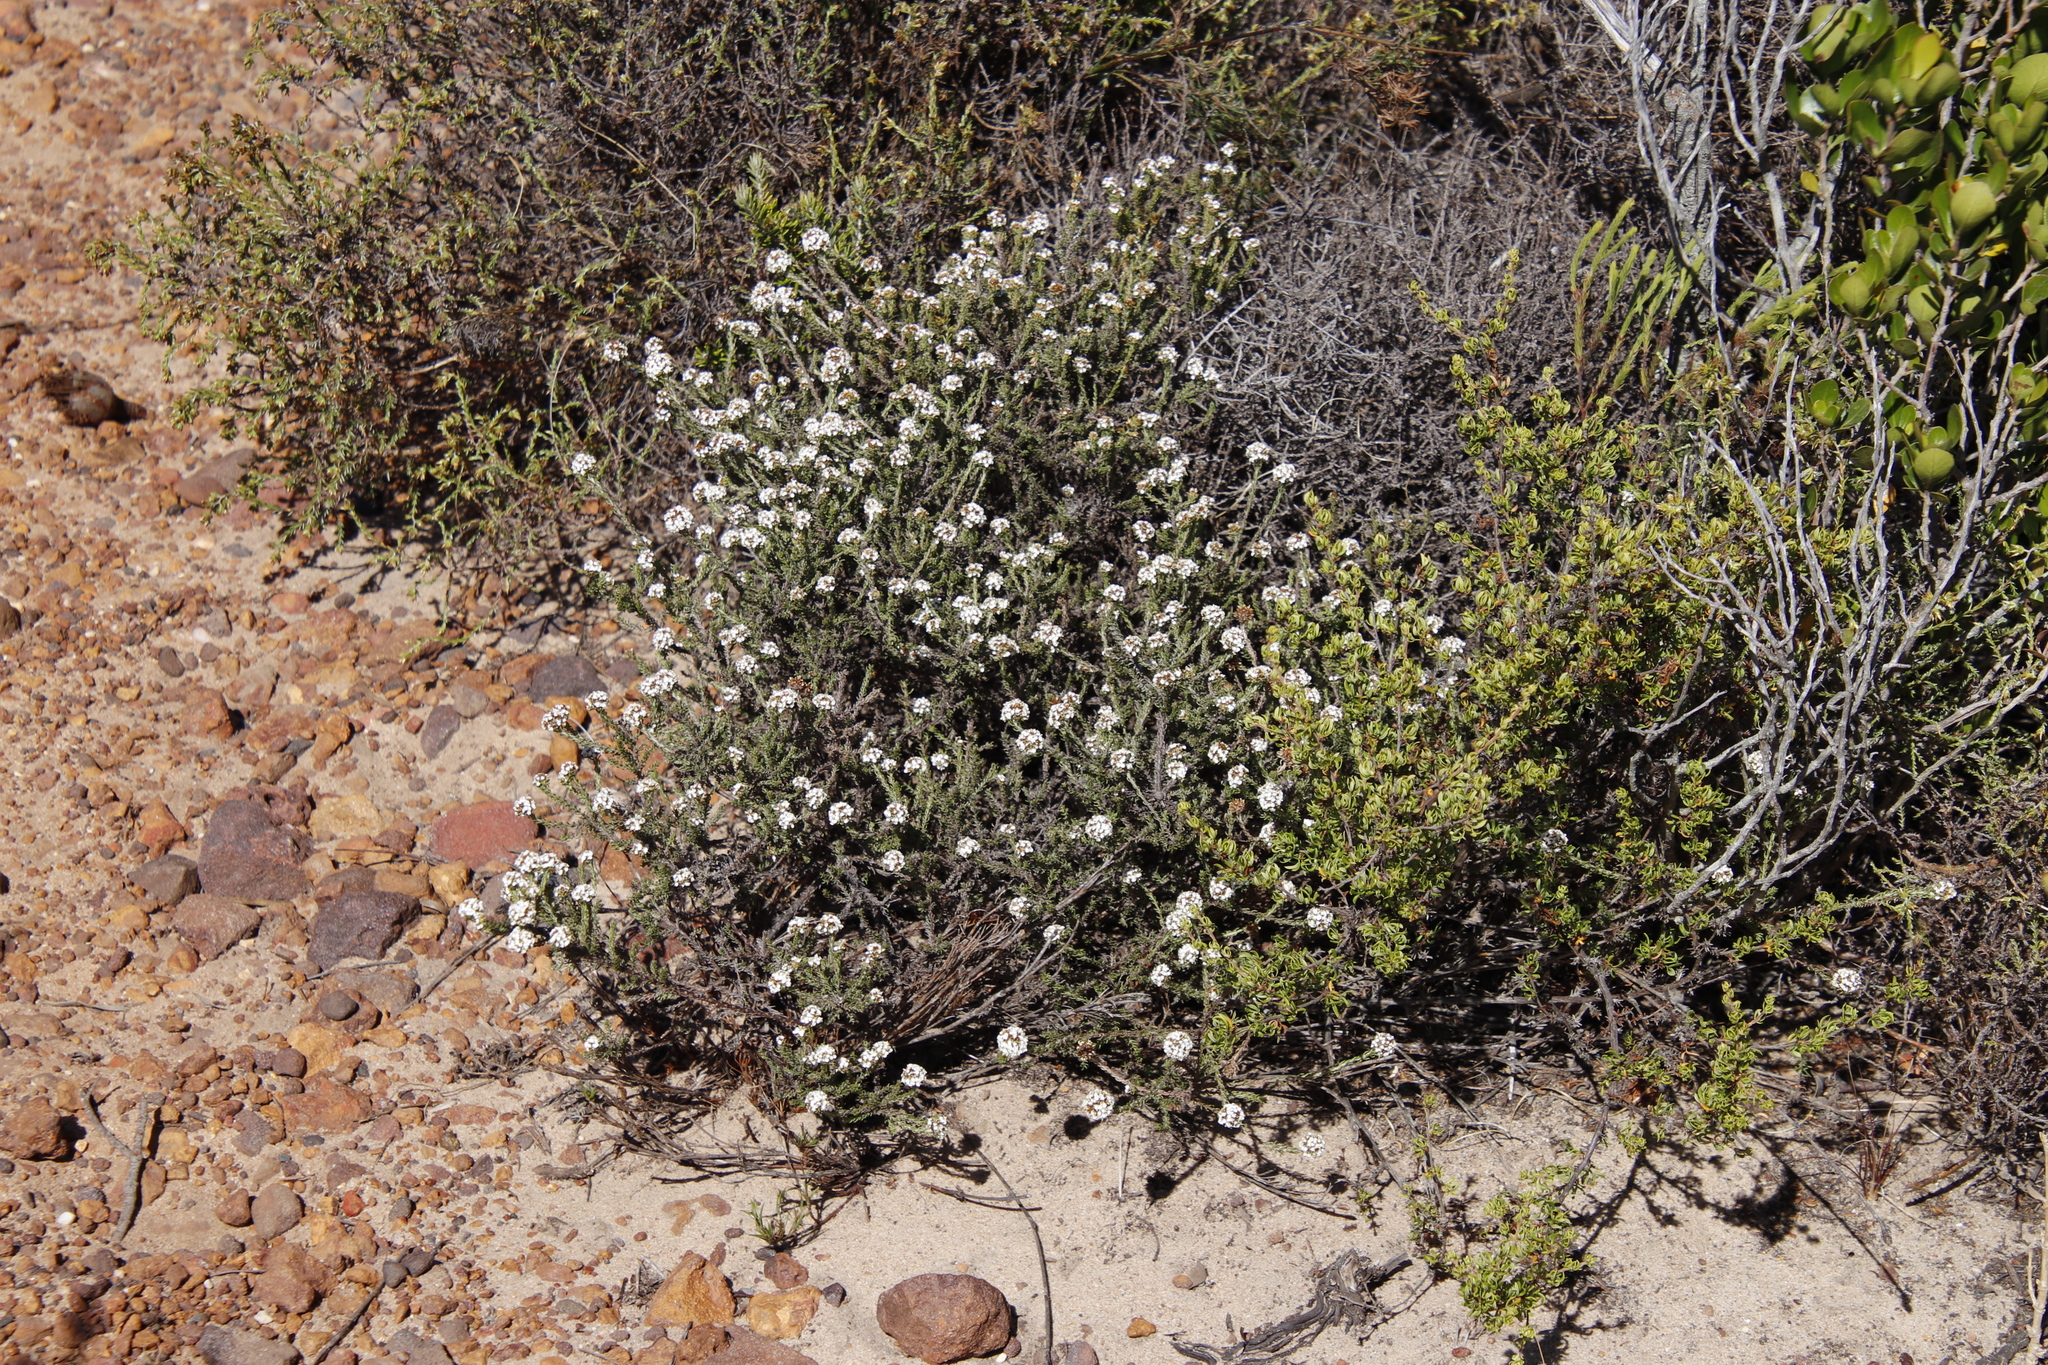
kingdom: Plantae
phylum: Tracheophyta
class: Magnoliopsida
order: Asterales
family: Asteraceae
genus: Disparago
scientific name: Disparago anomala
